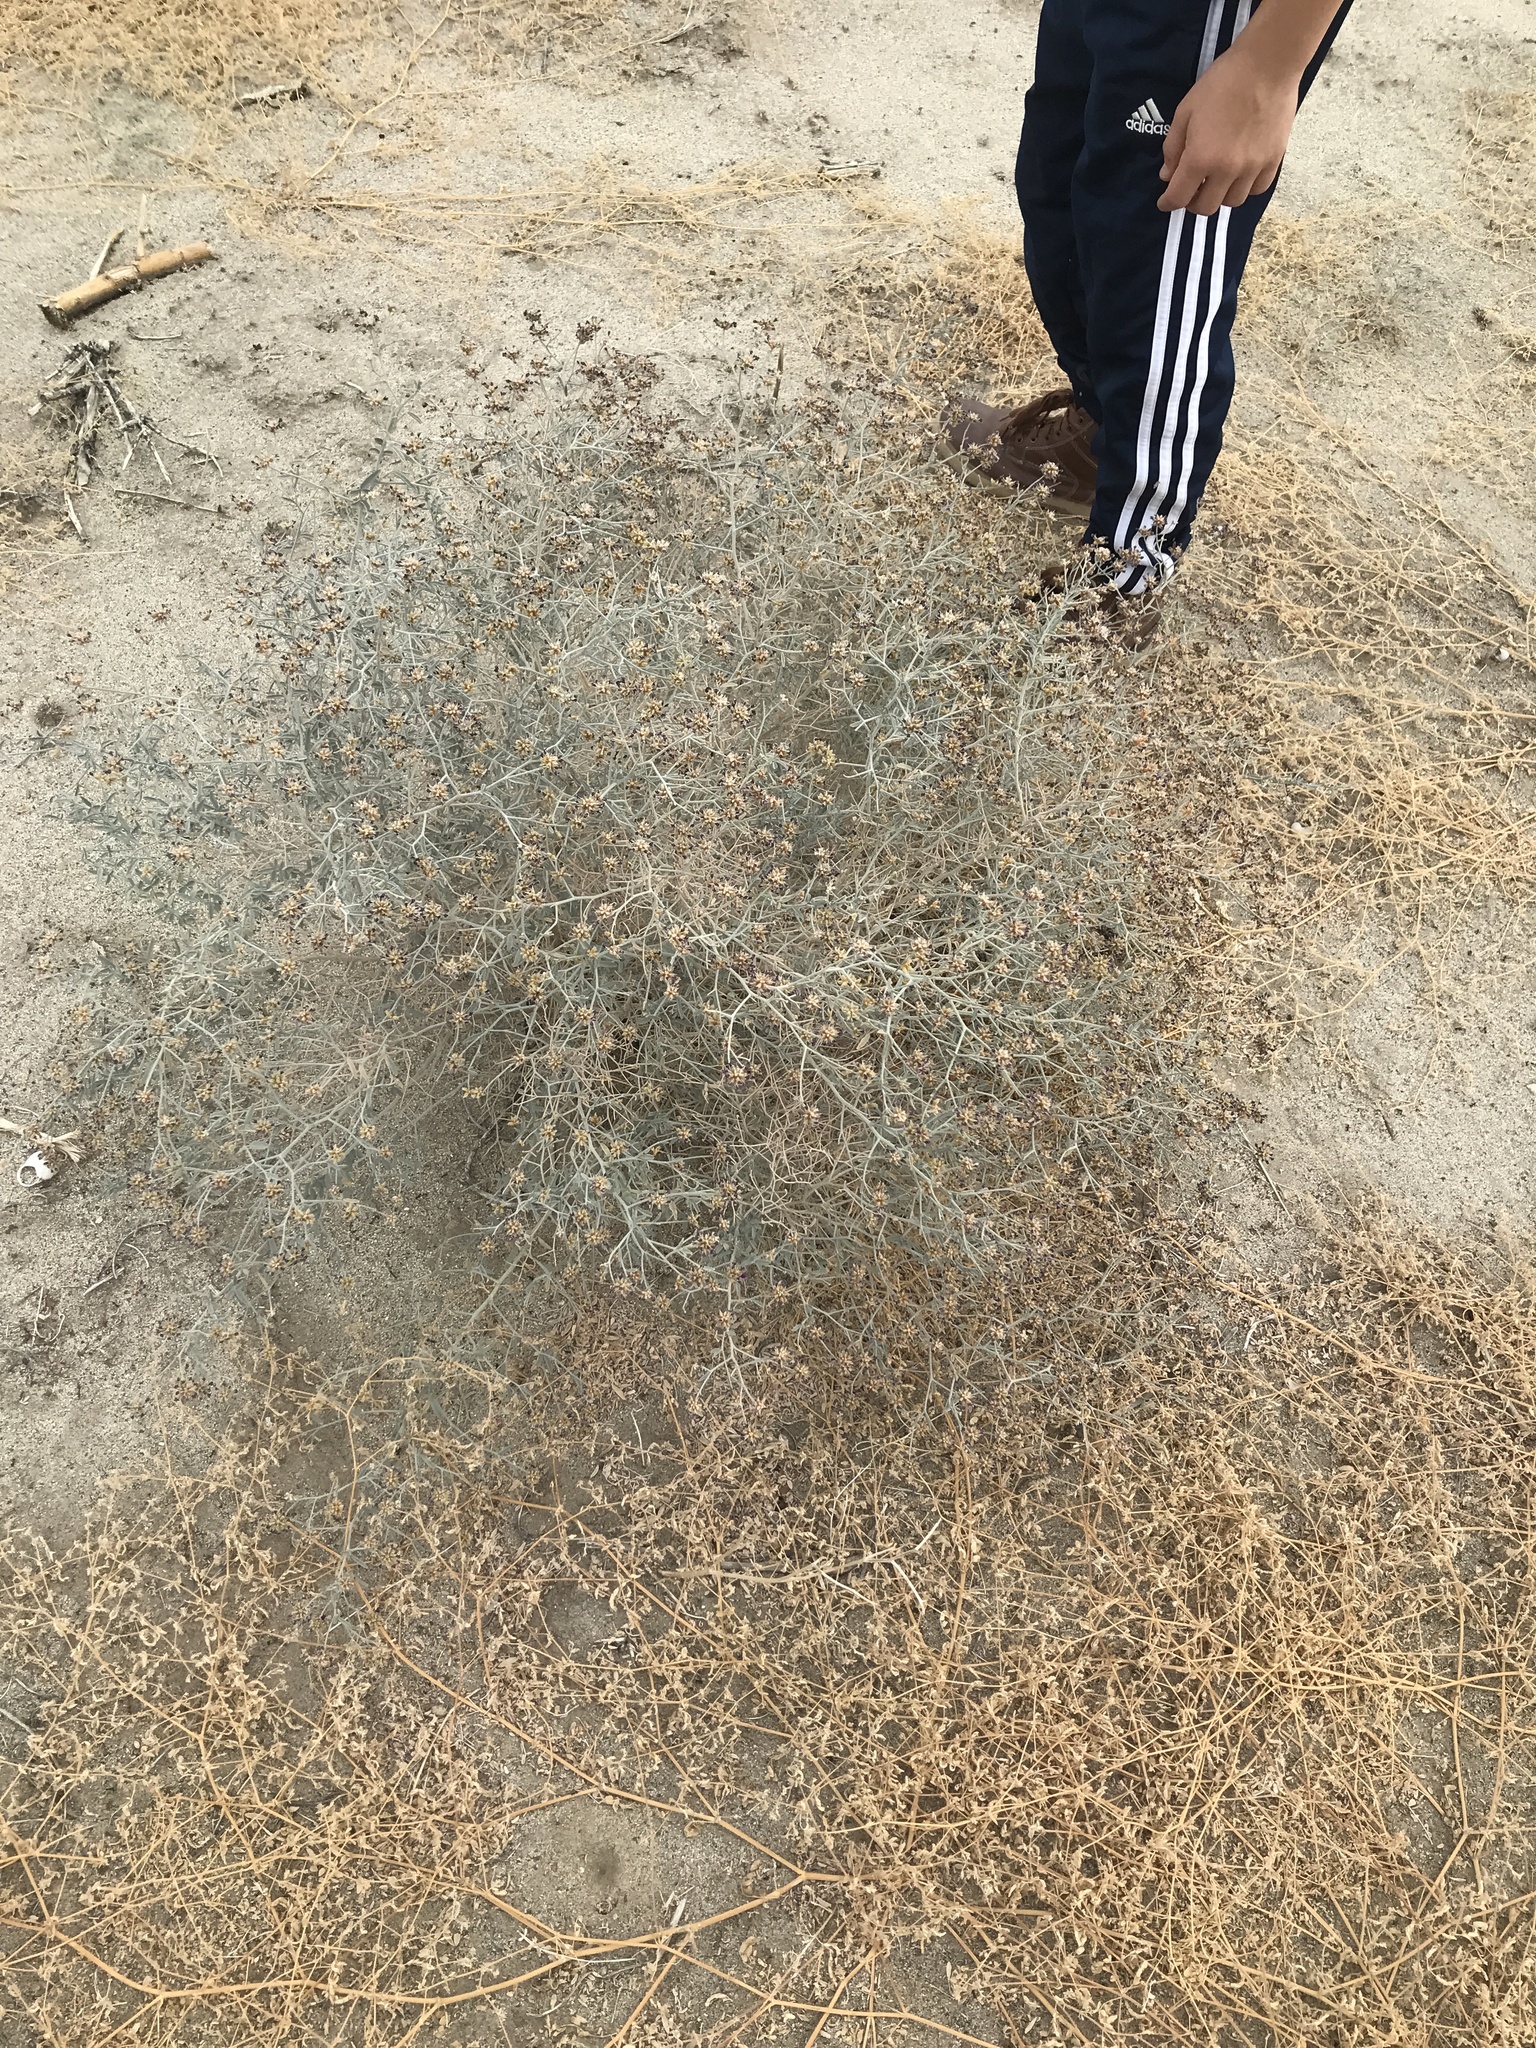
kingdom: Plantae
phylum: Tracheophyta
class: Magnoliopsida
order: Fabales
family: Fabaceae
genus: Psorothamnus
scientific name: Psorothamnus emoryi
